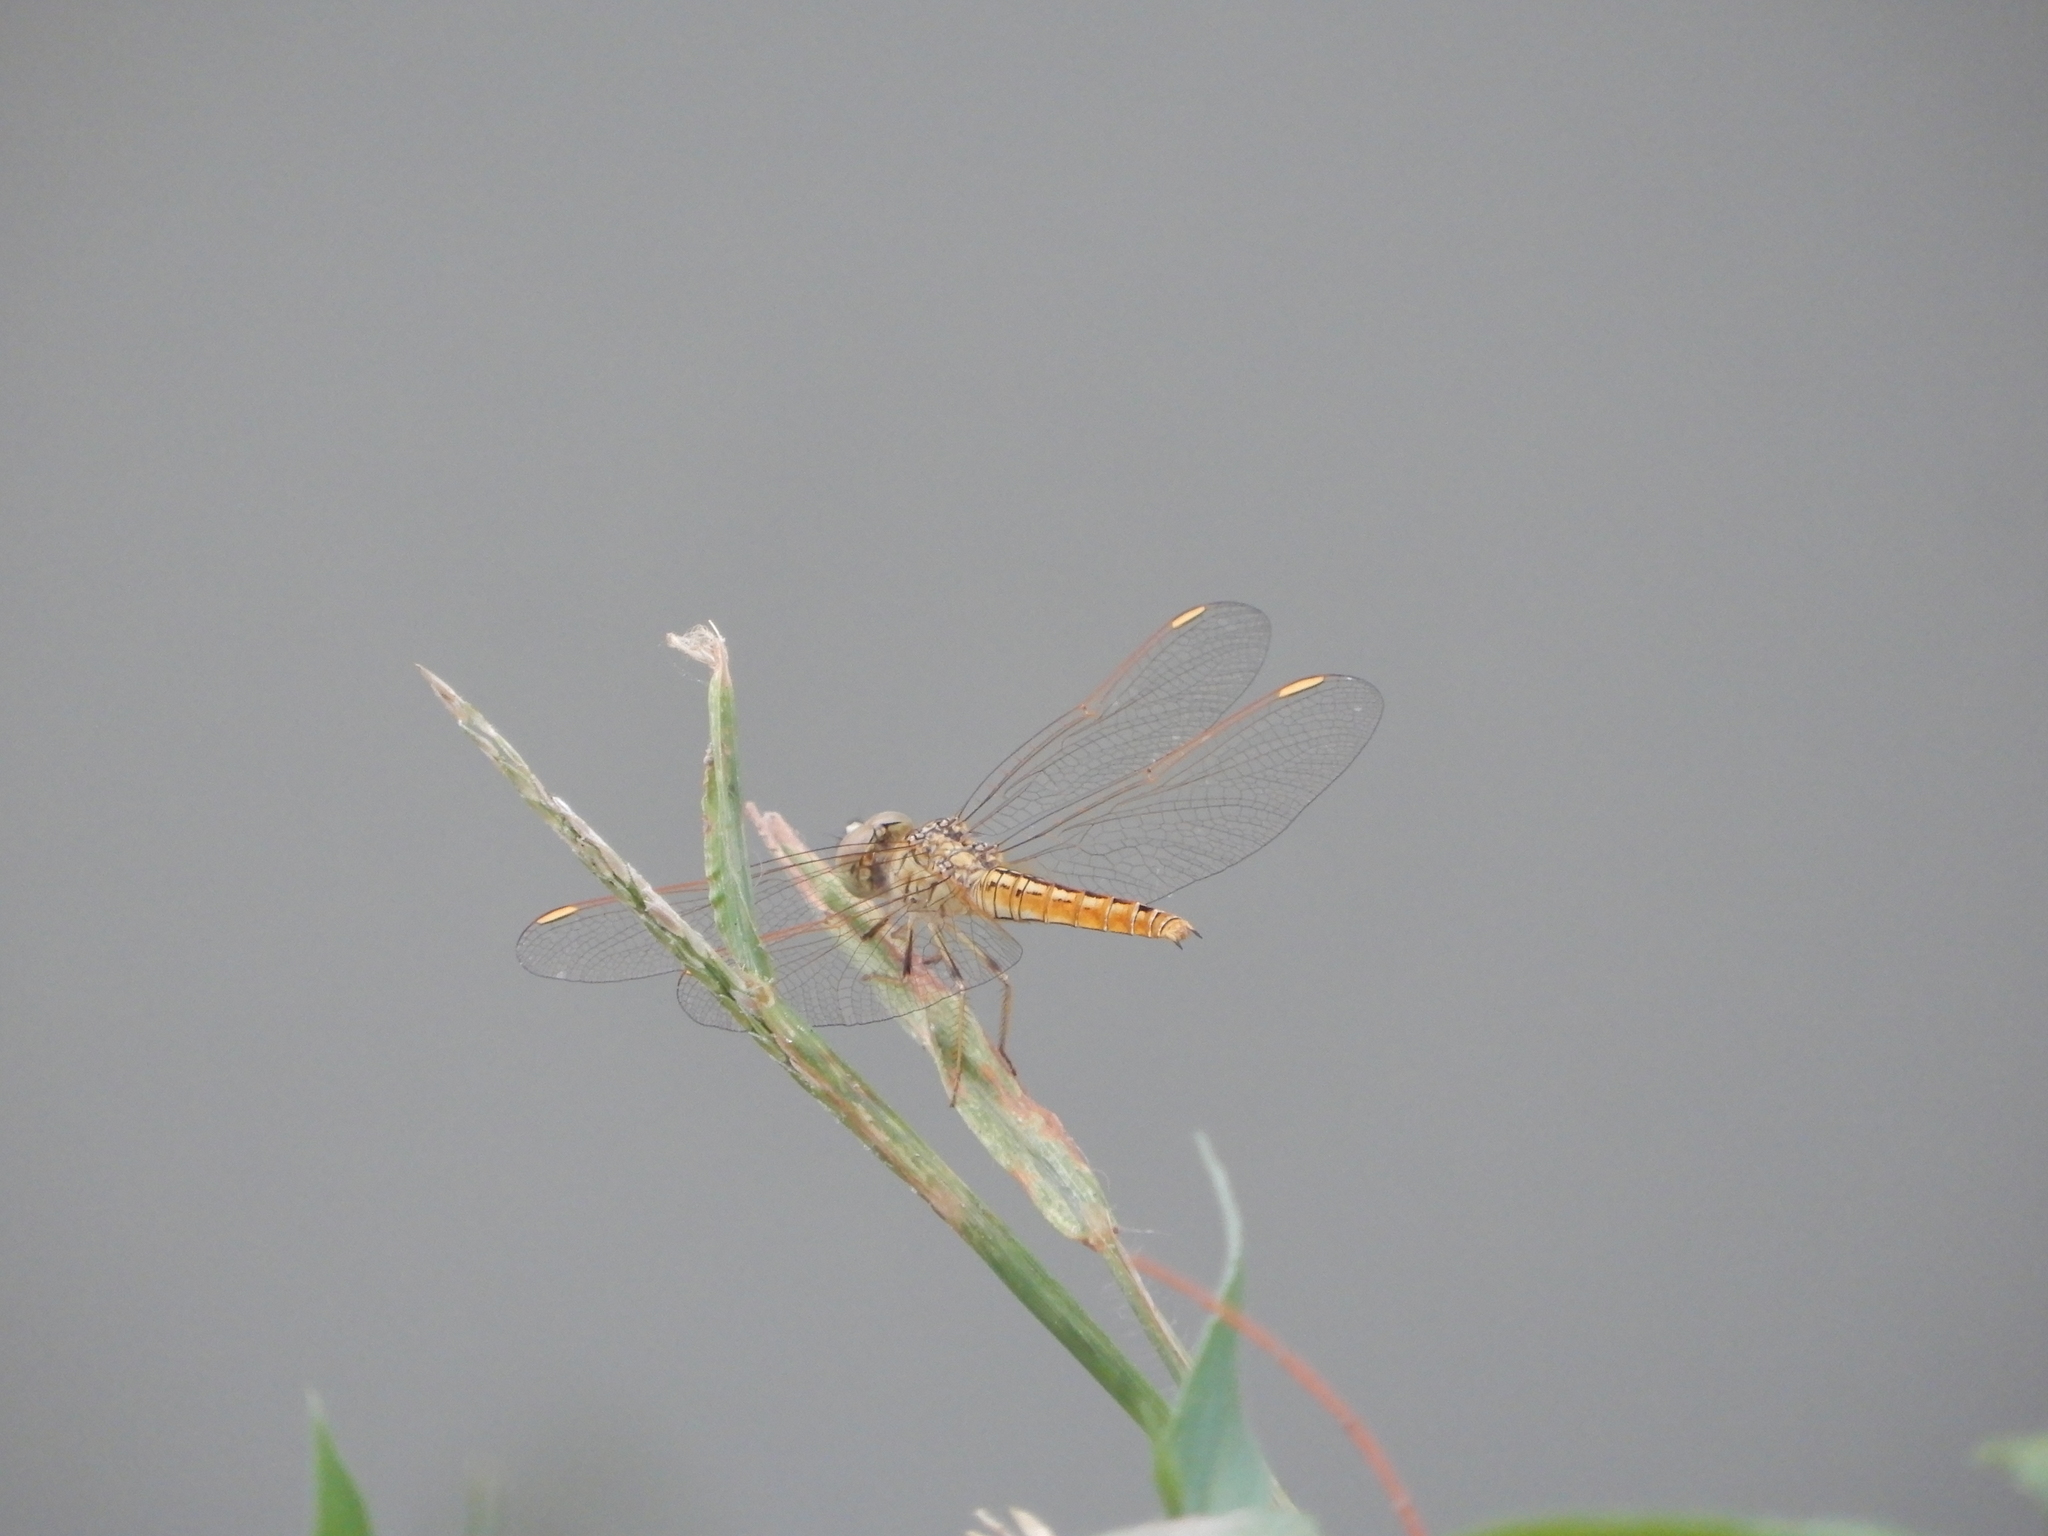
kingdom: Animalia
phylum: Arthropoda
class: Insecta
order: Odonata
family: Libellulidae
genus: Brachythemis
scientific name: Brachythemis contaminata
